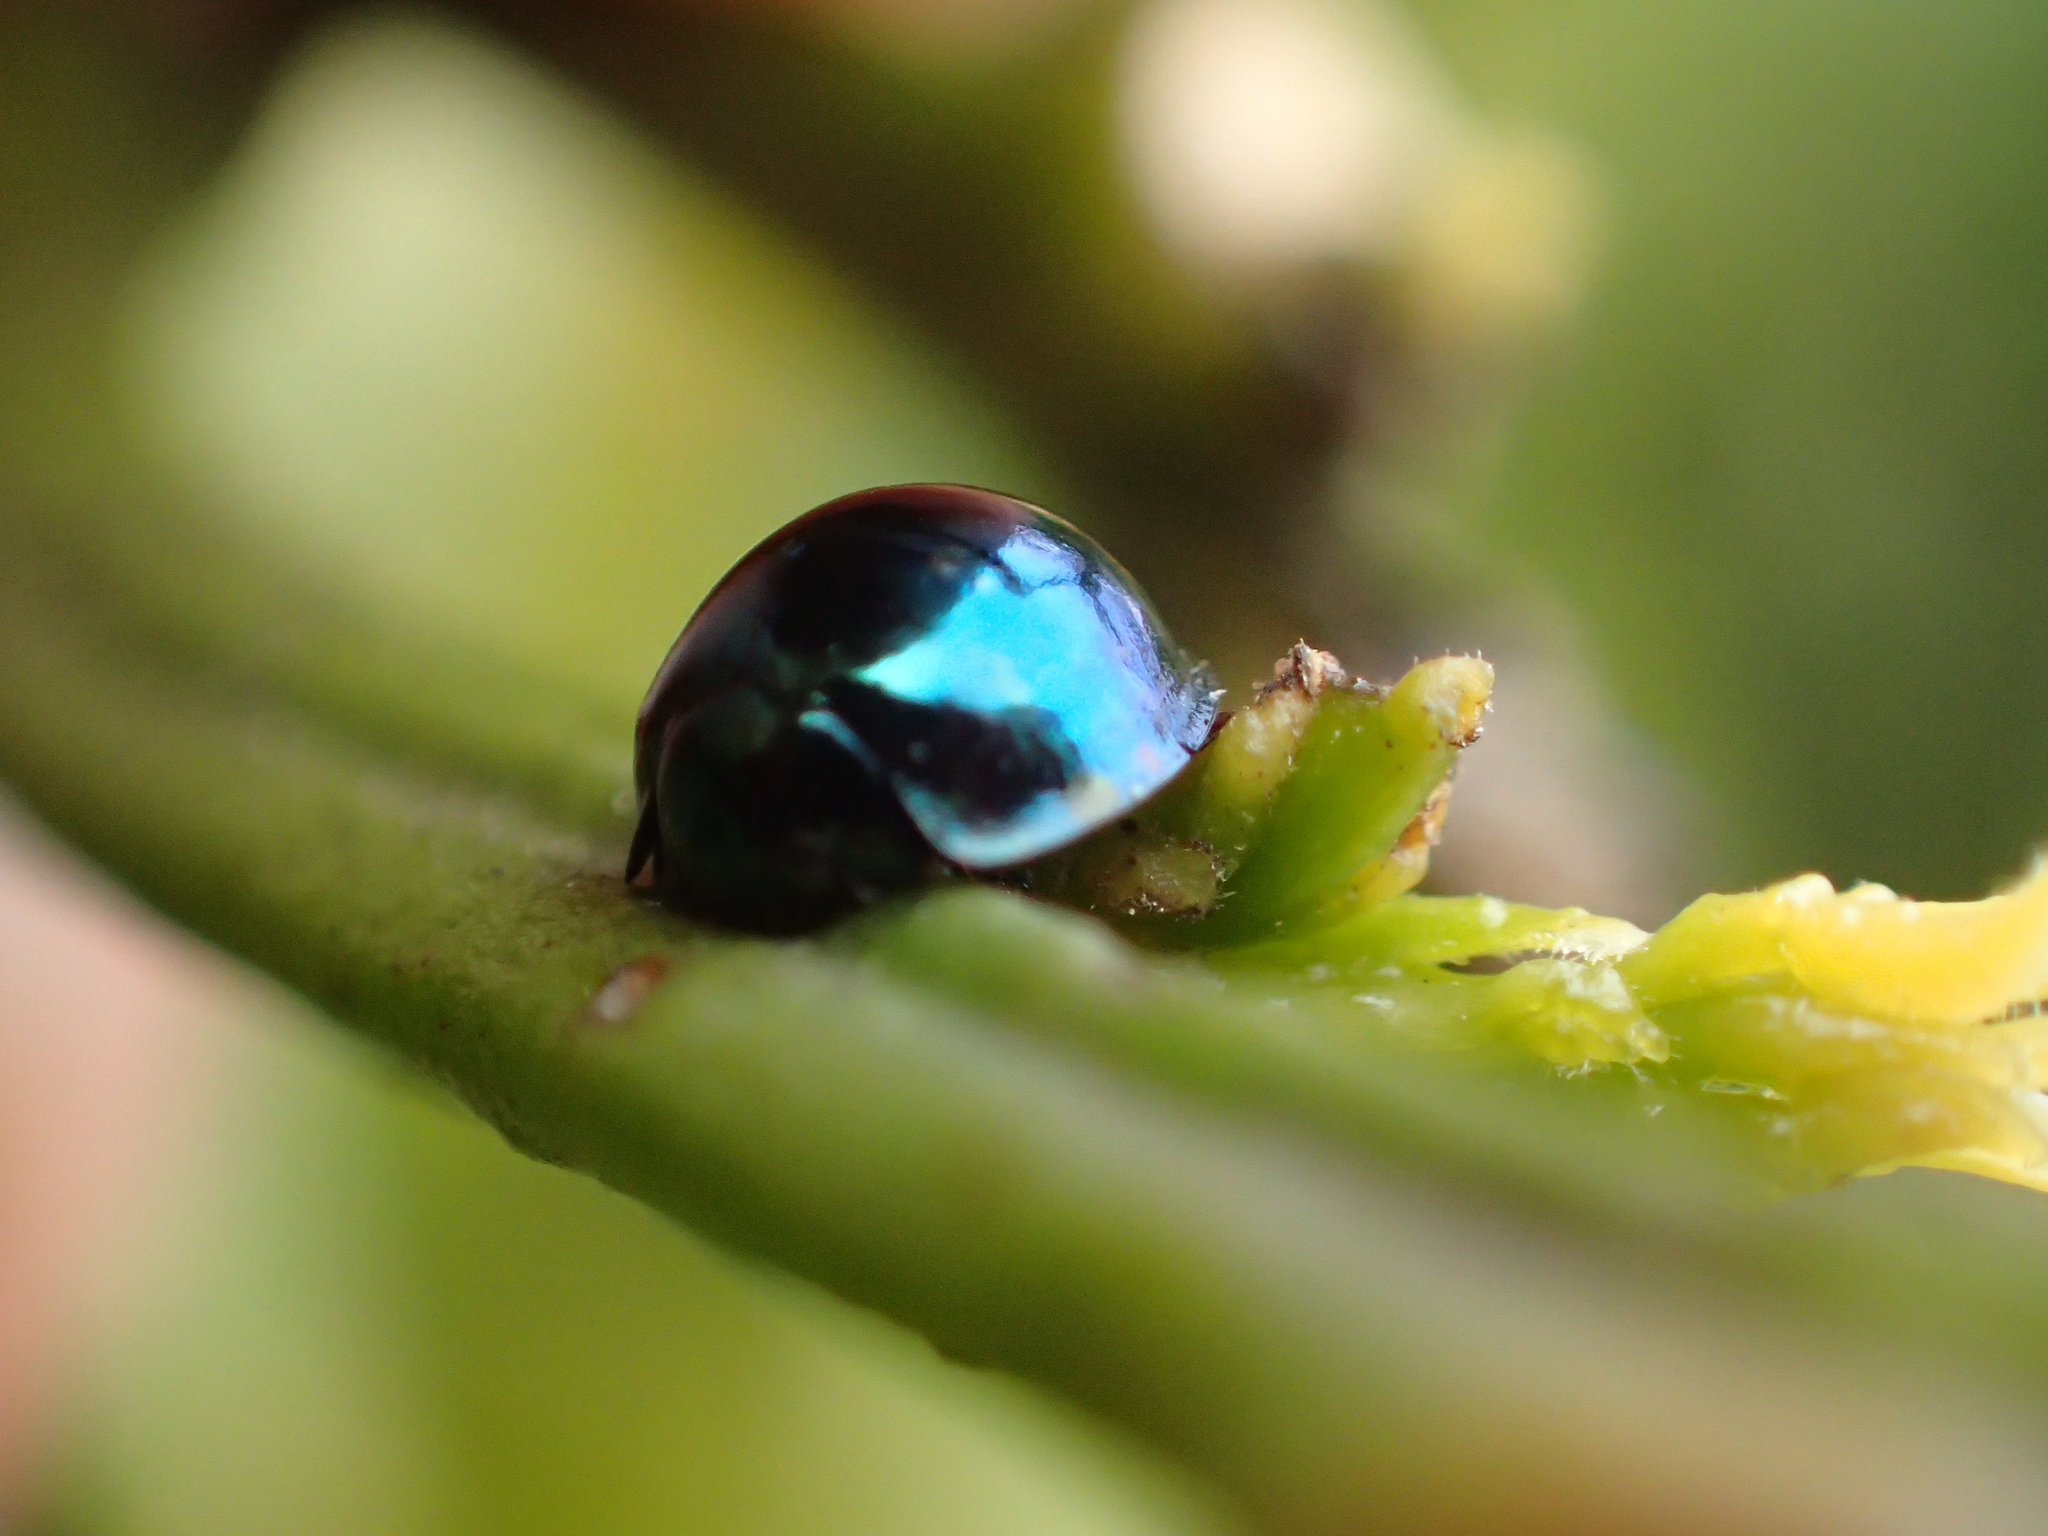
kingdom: Animalia
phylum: Arthropoda
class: Insecta
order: Coleoptera
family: Coccinellidae
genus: Halmus
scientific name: Halmus chalybeus
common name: Steel blue ladybird beetle
